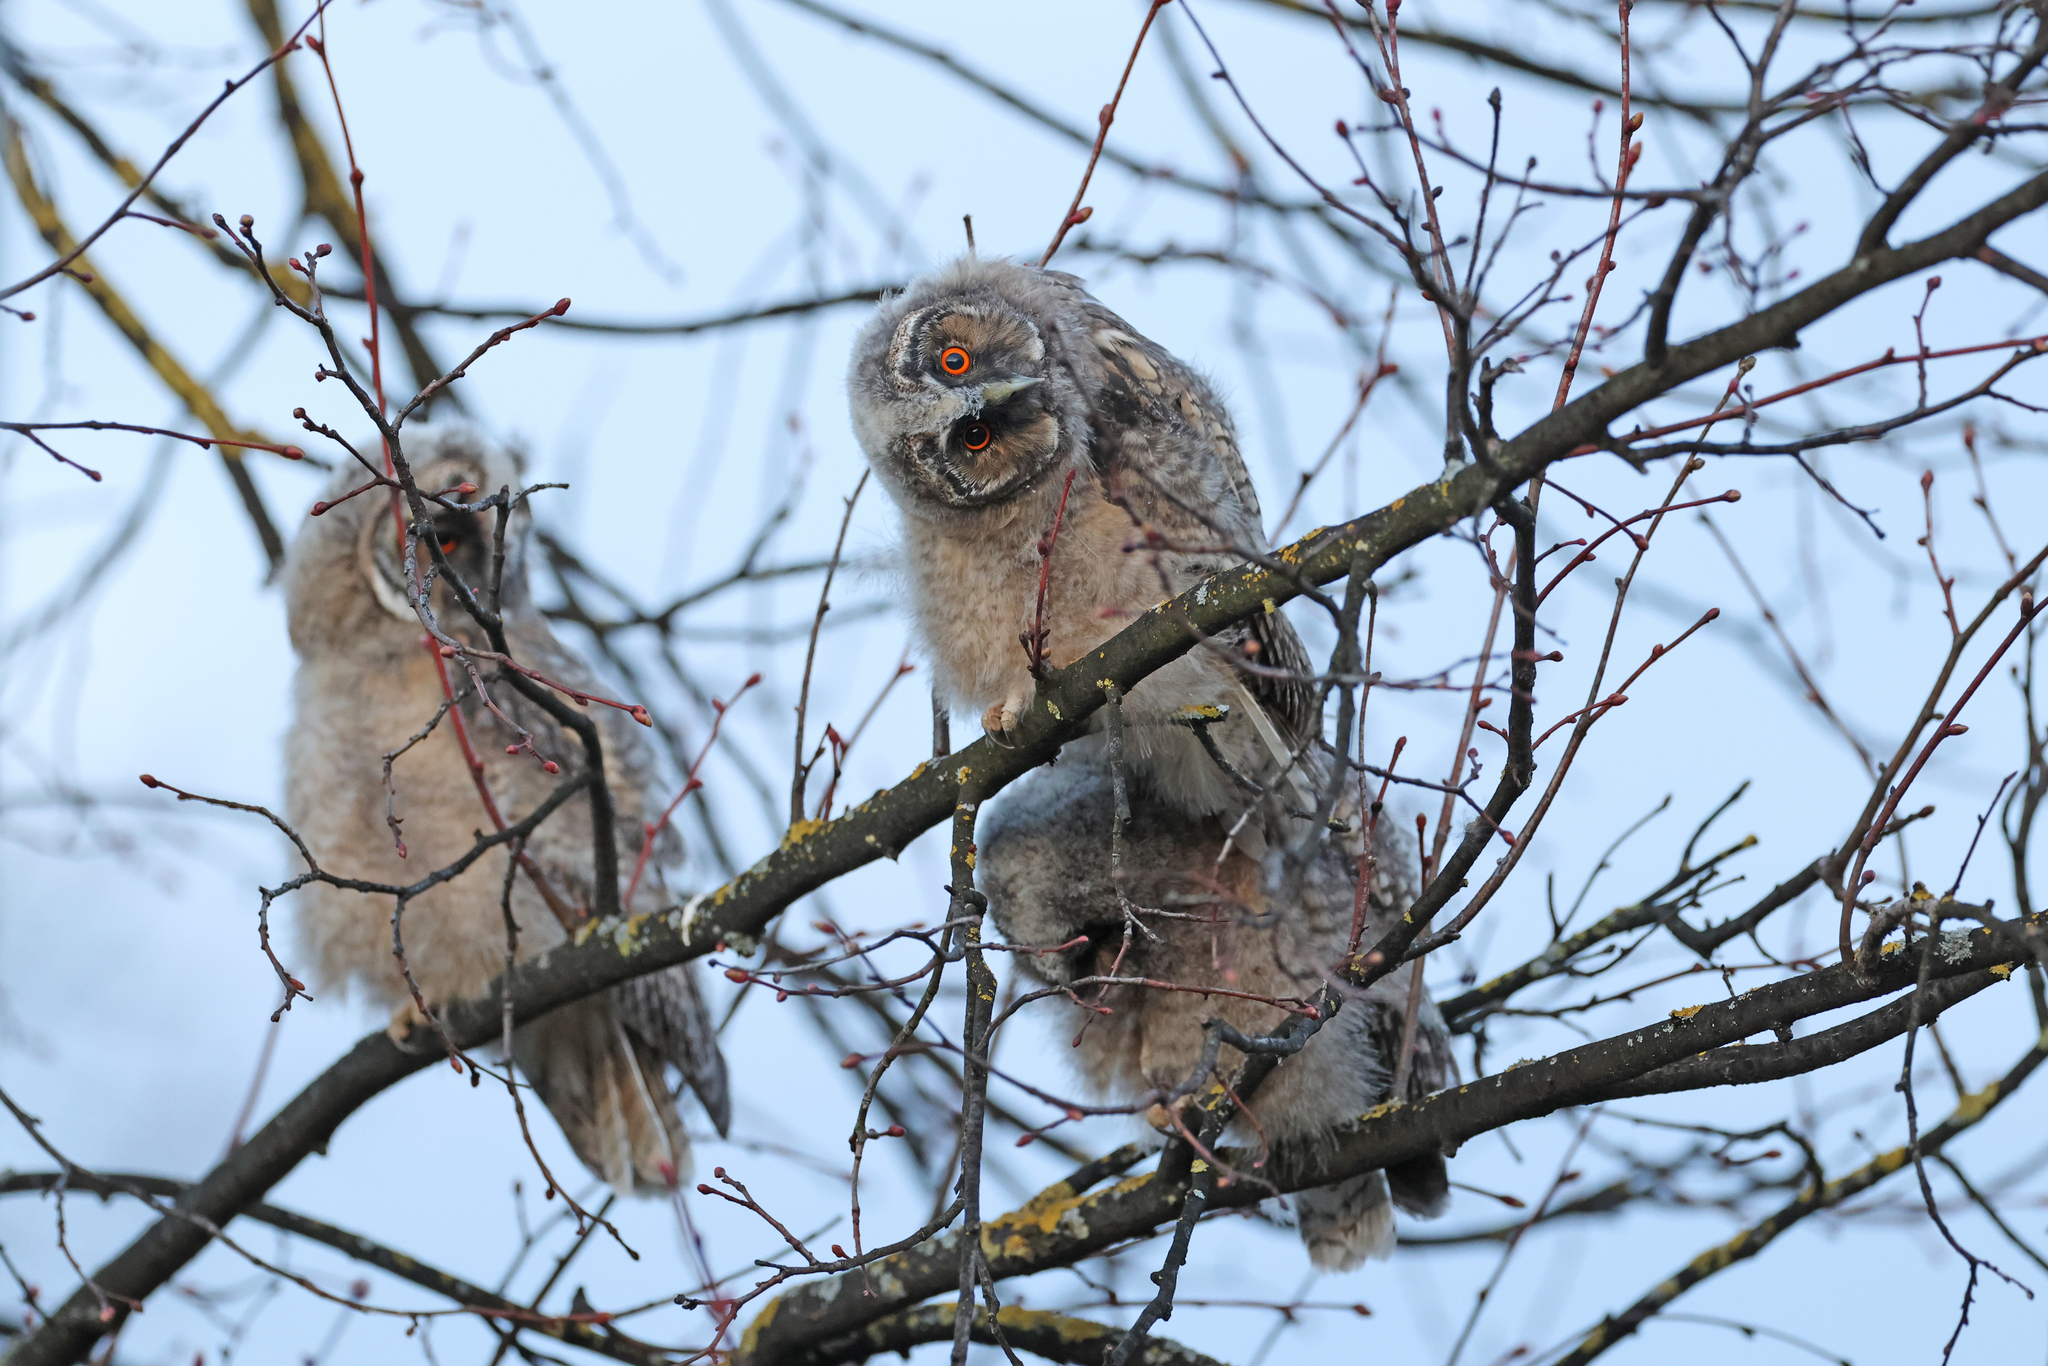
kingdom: Animalia
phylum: Chordata
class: Aves
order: Strigiformes
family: Strigidae
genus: Asio
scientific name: Asio otus
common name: Long-eared owl
